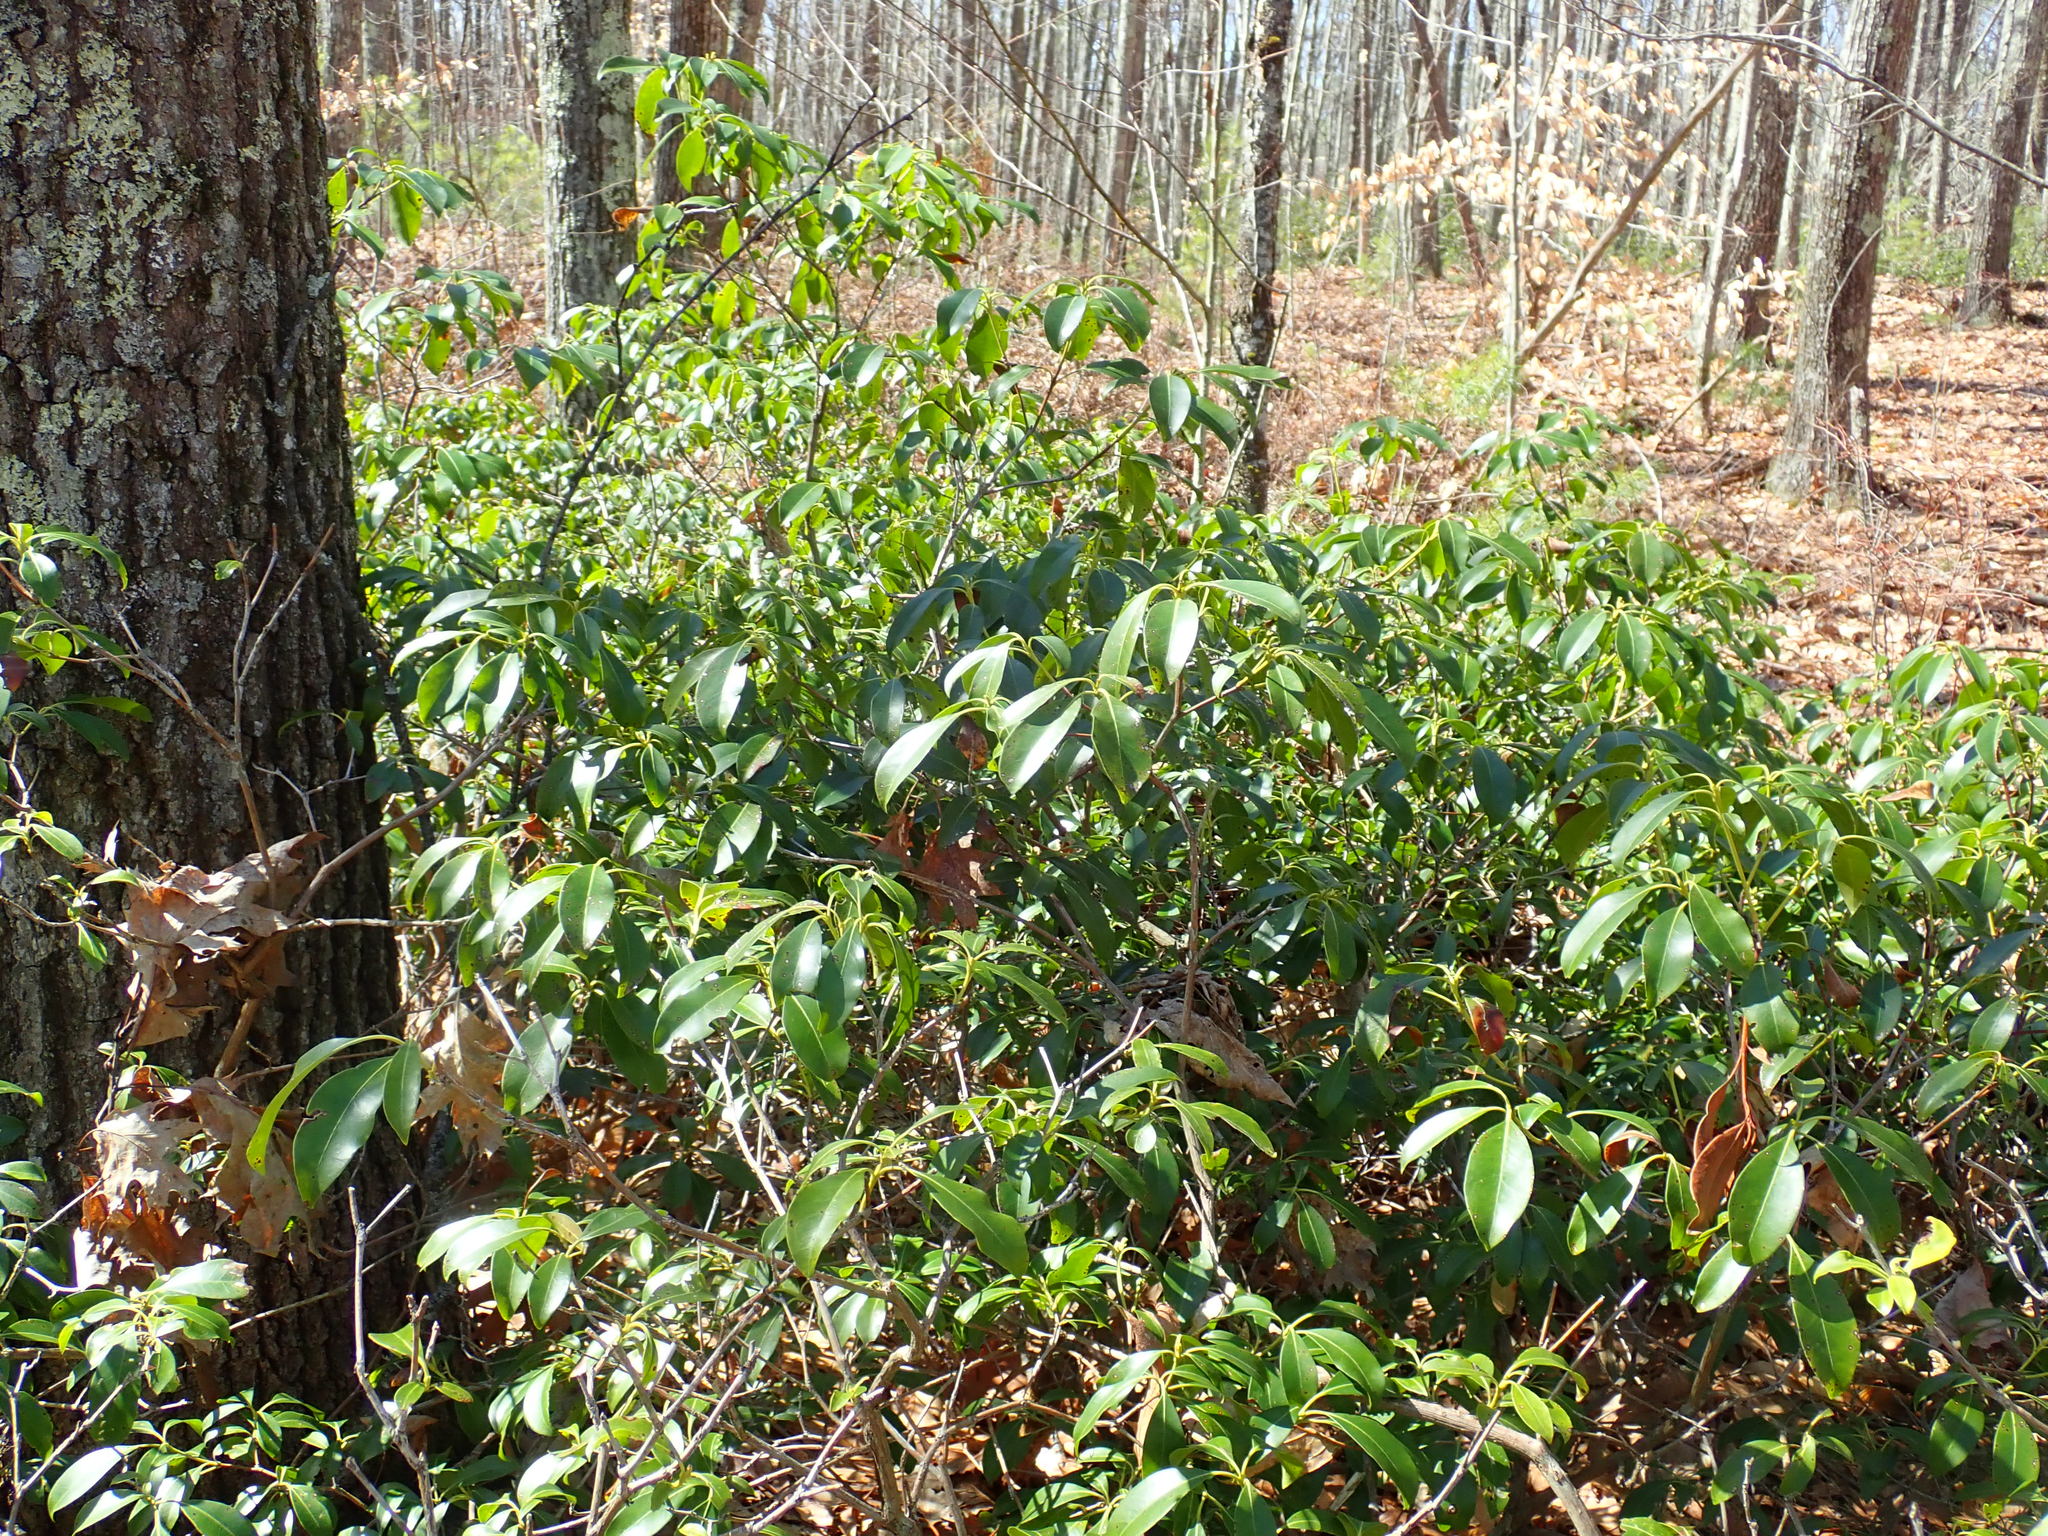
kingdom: Plantae
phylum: Tracheophyta
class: Magnoliopsida
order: Ericales
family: Ericaceae
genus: Kalmia
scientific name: Kalmia latifolia
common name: Mountain-laurel
